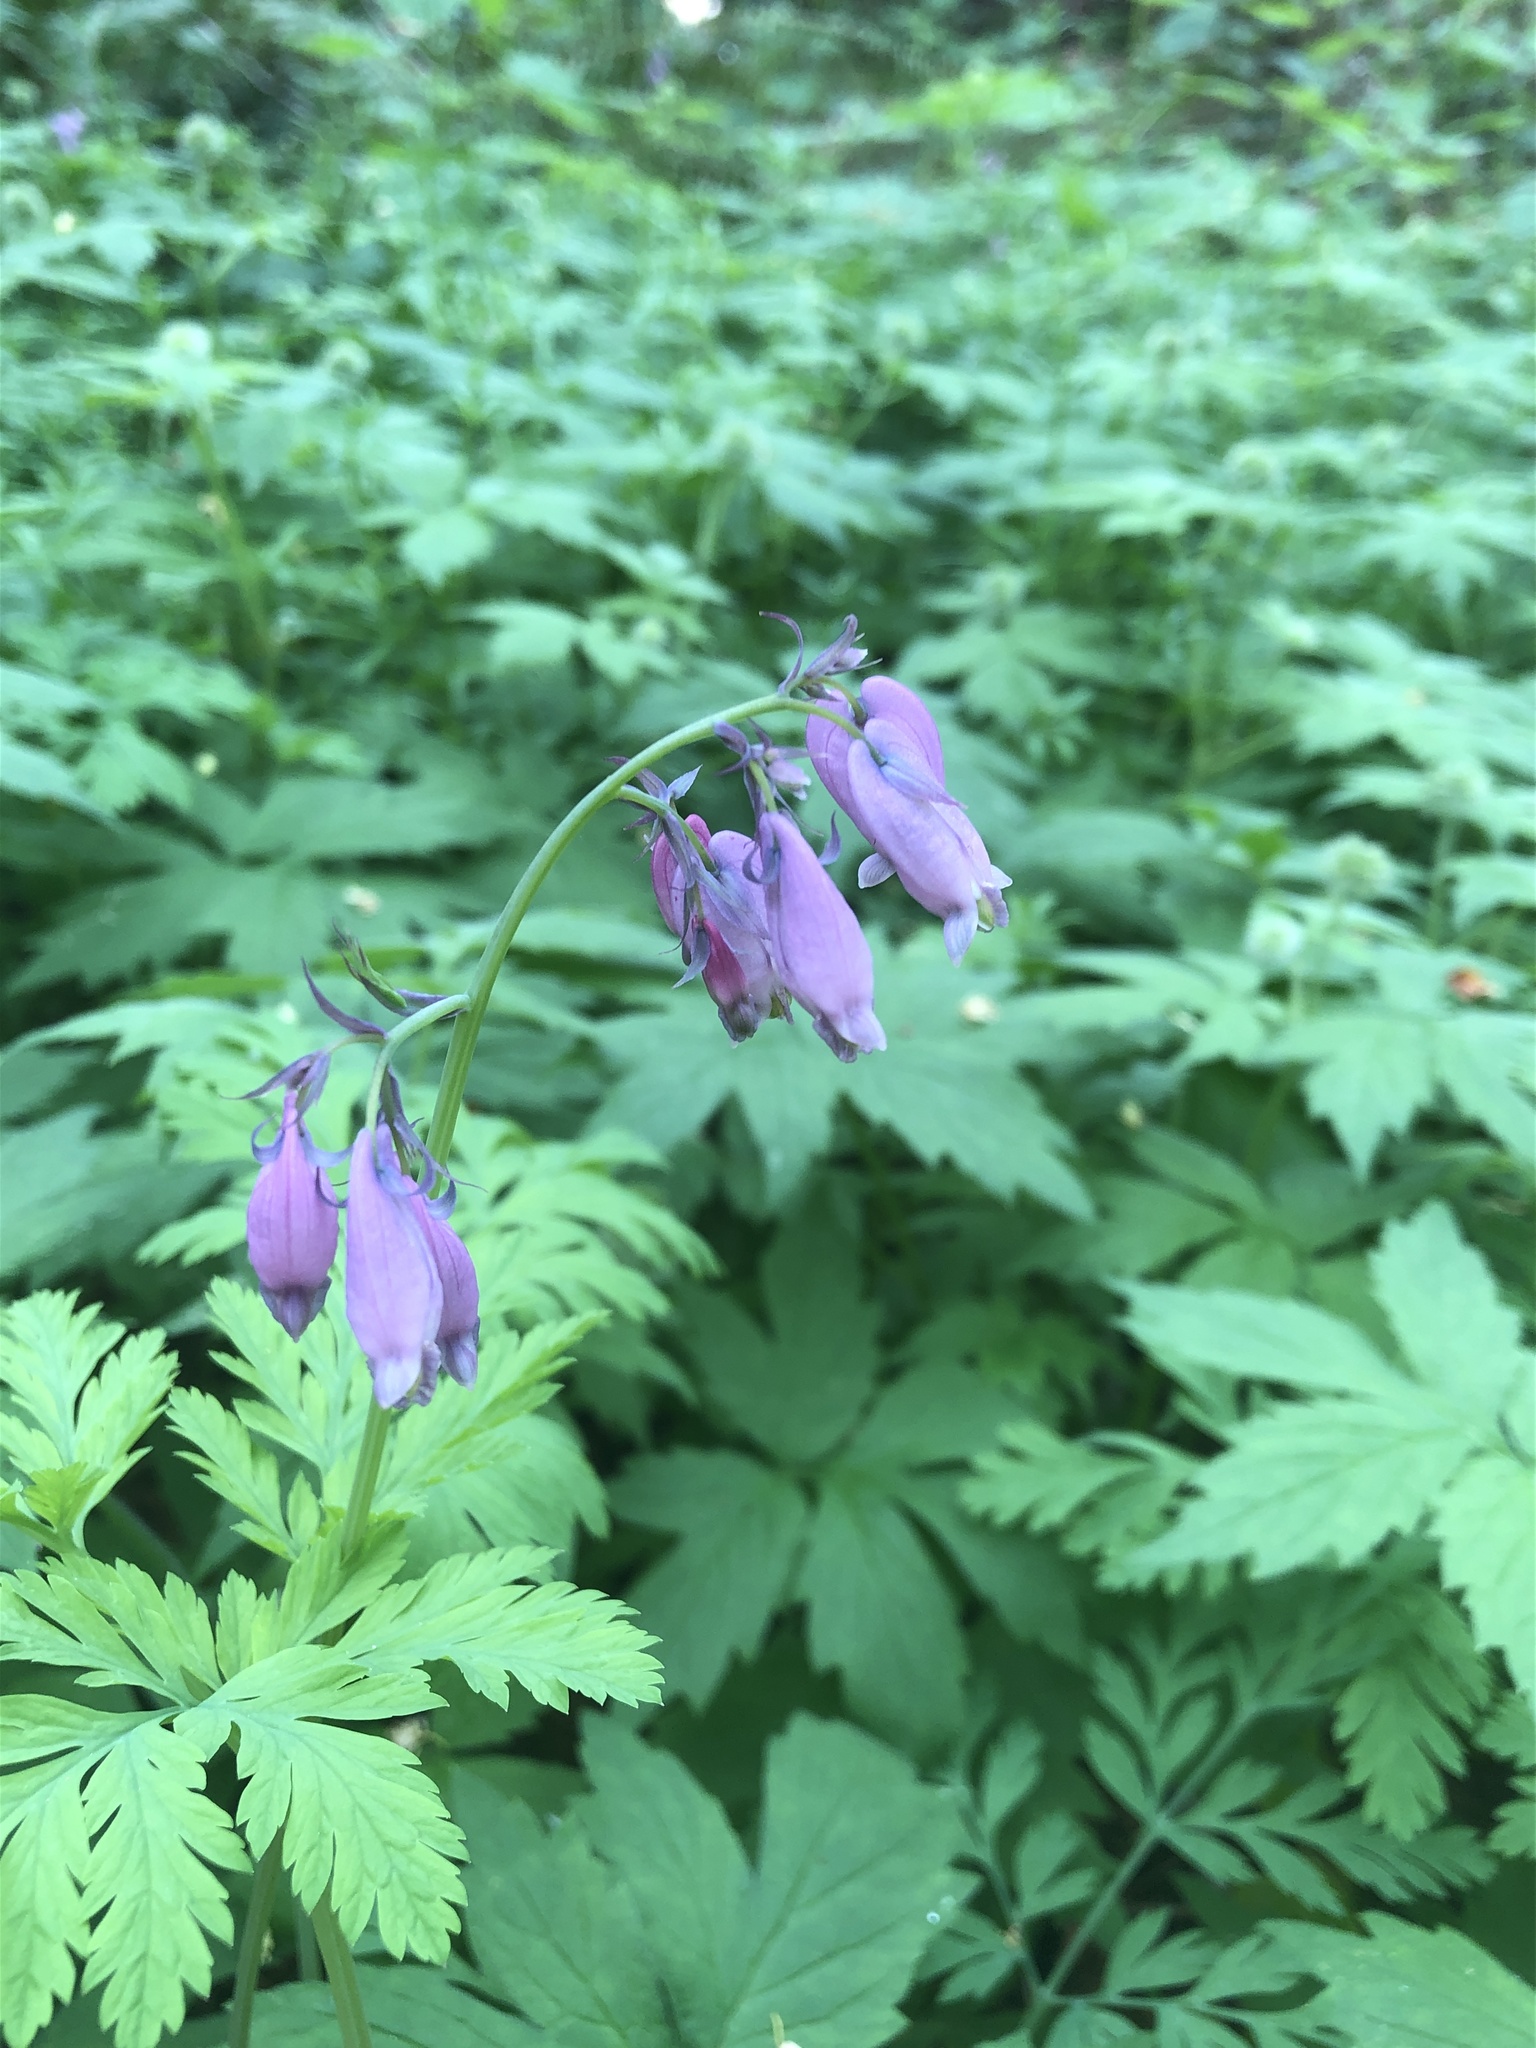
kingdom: Plantae
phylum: Tracheophyta
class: Magnoliopsida
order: Ranunculales
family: Papaveraceae
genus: Dicentra
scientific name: Dicentra formosa
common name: Bleeding-heart
